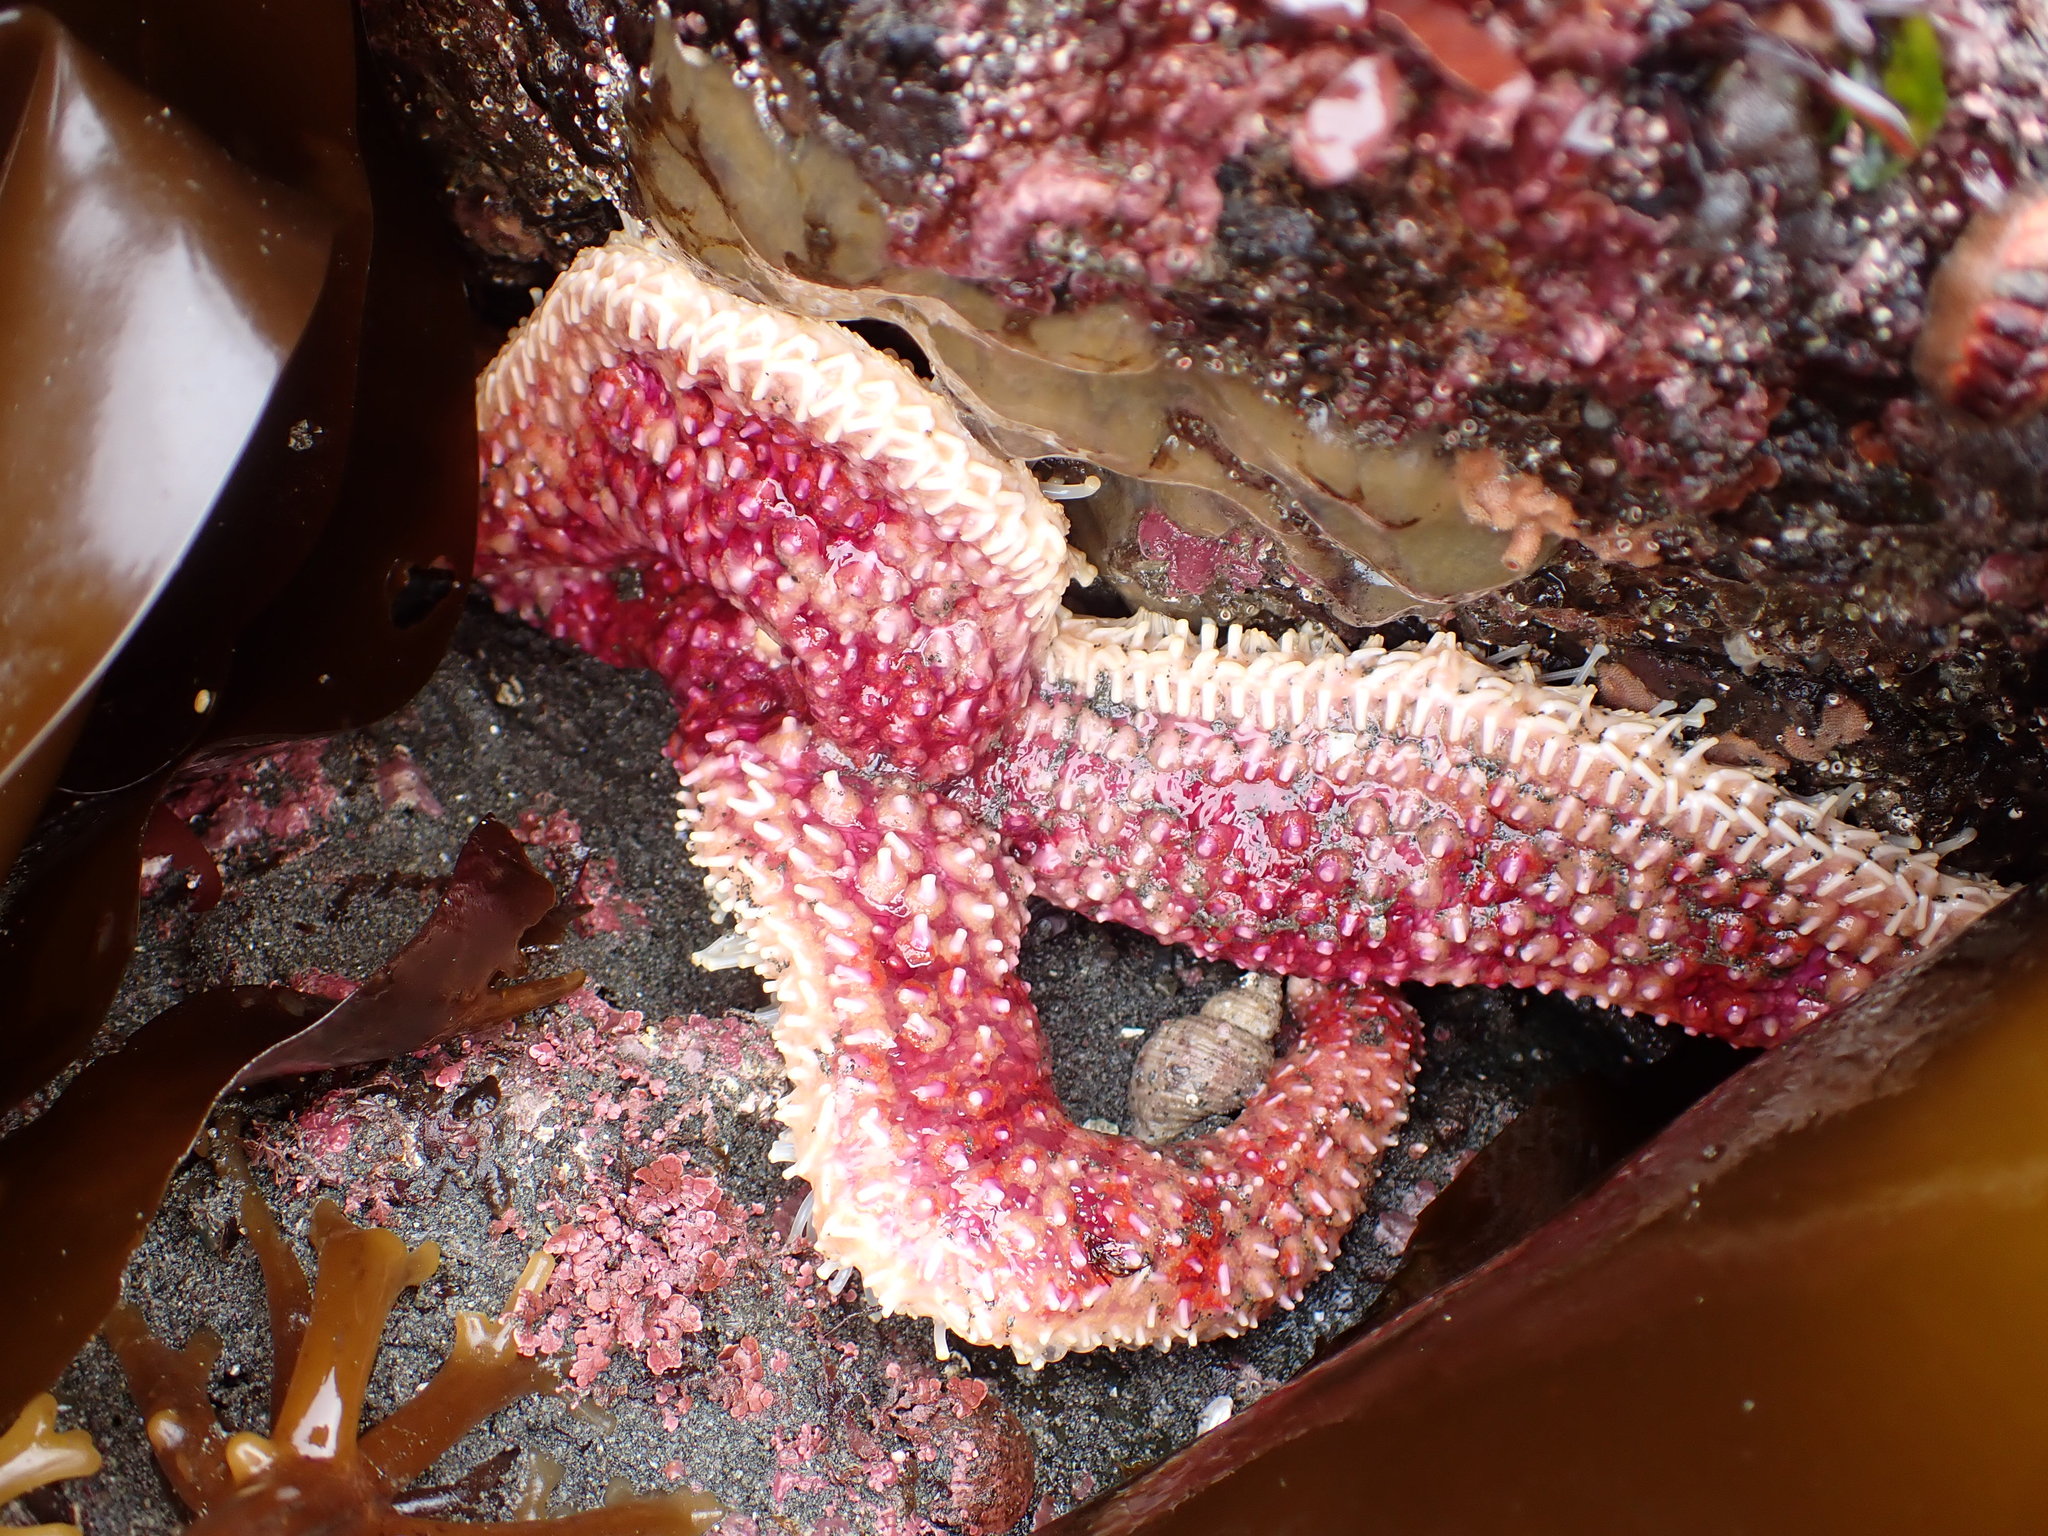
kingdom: Animalia
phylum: Echinodermata
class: Asteroidea
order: Forcipulatida
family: Asteriidae
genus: Orthasterias
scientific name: Orthasterias koehleri
